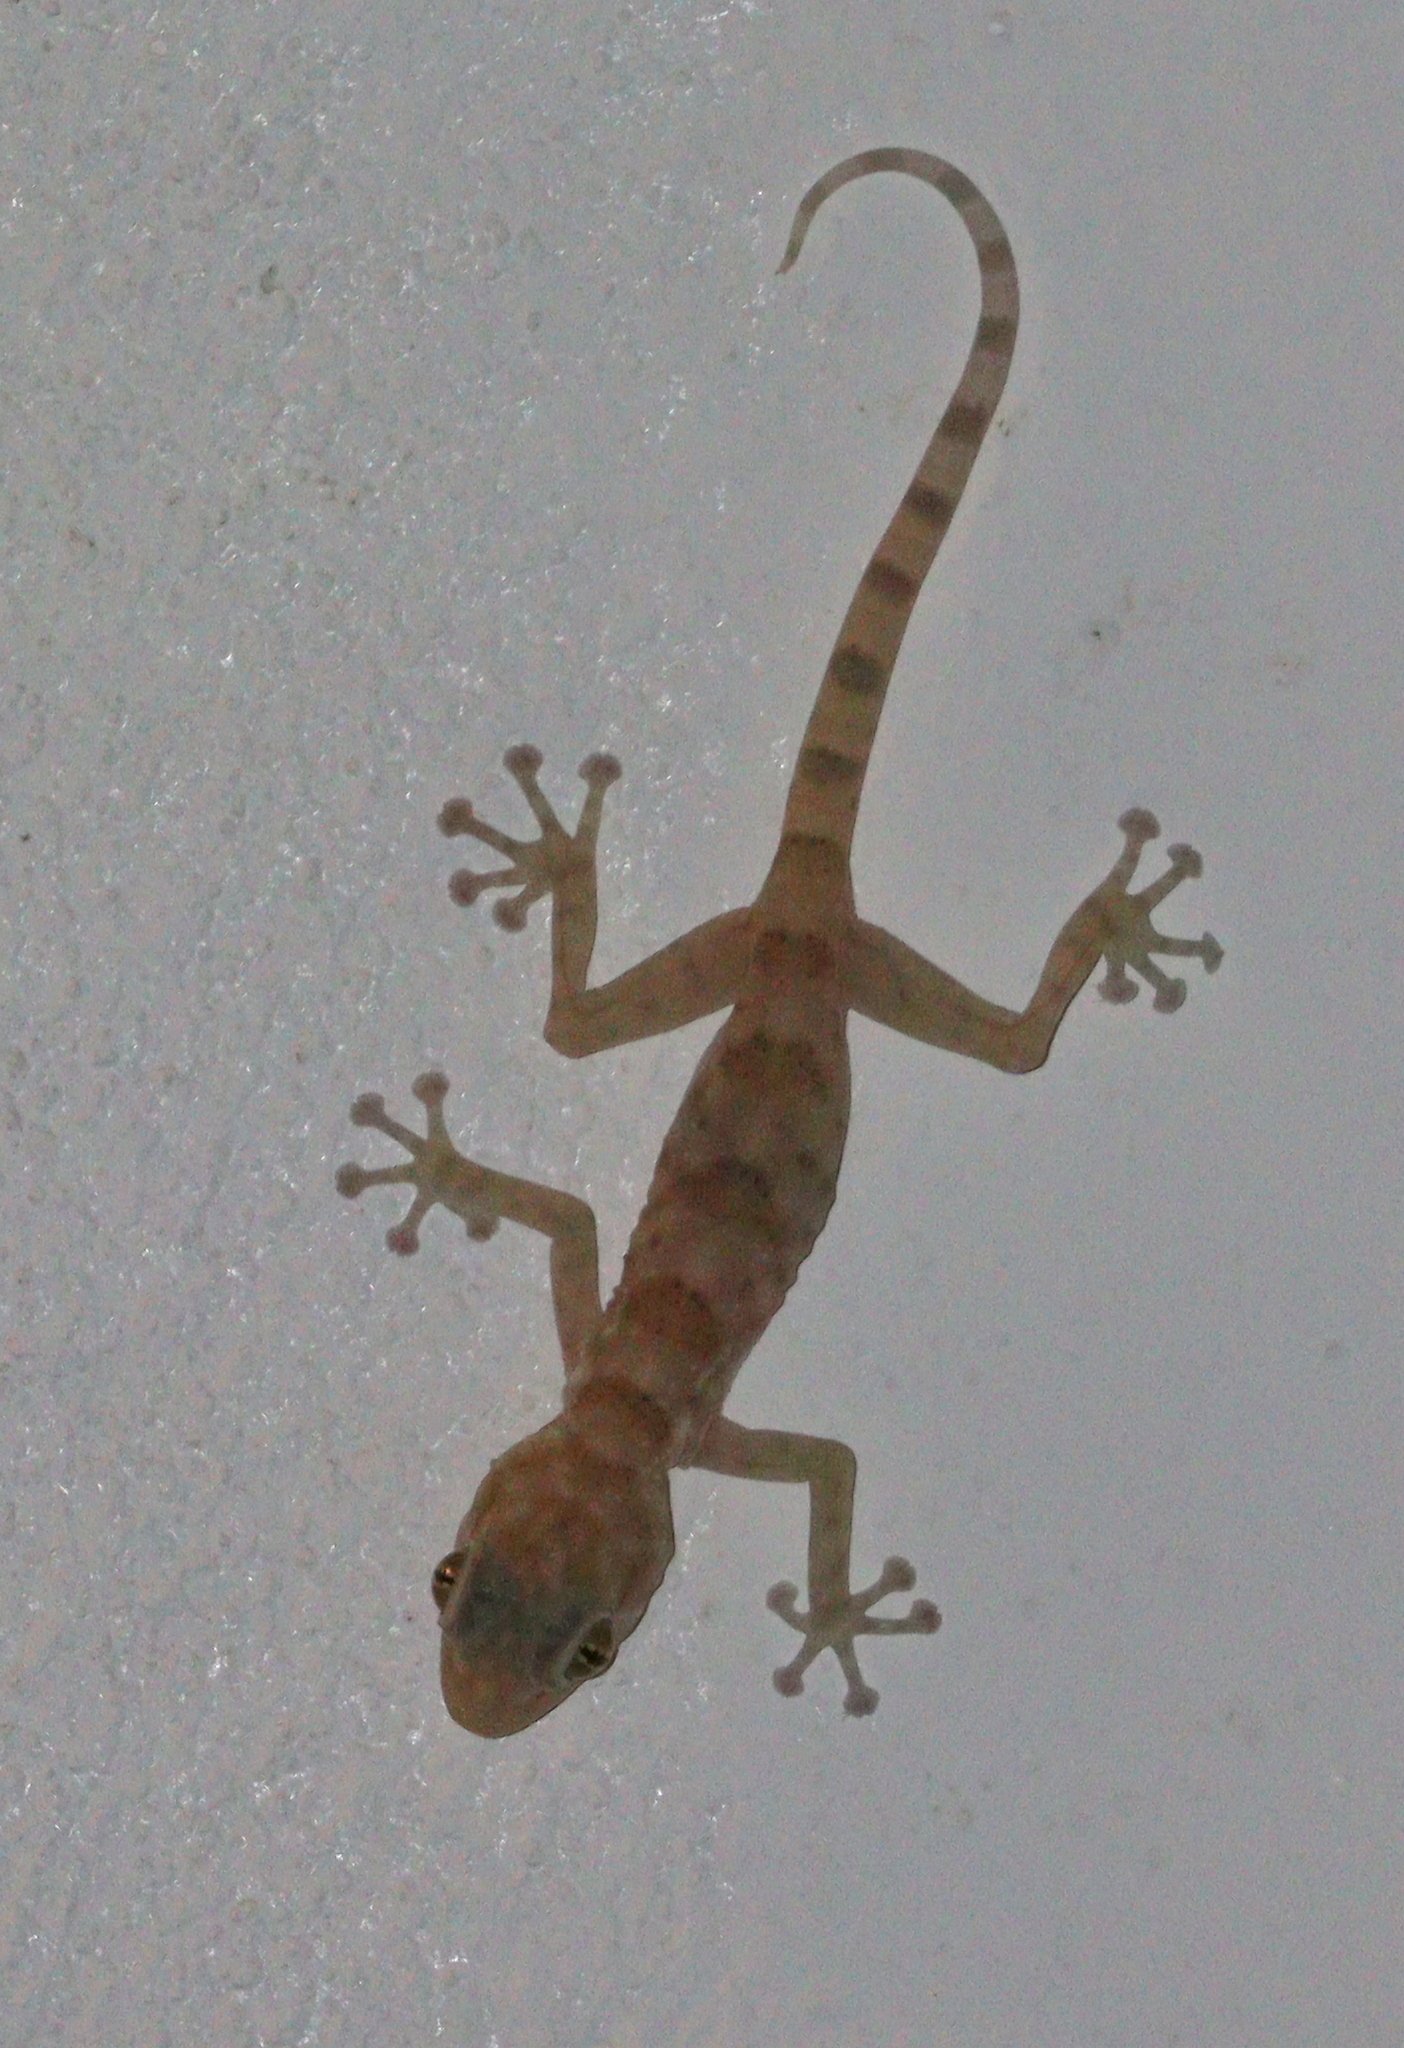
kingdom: Animalia
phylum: Chordata
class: Squamata
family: Phyllodactylidae
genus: Ptyodactylus
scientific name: Ptyodactylus hasselquistii
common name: Hasselquist’s fan-footed gecko
